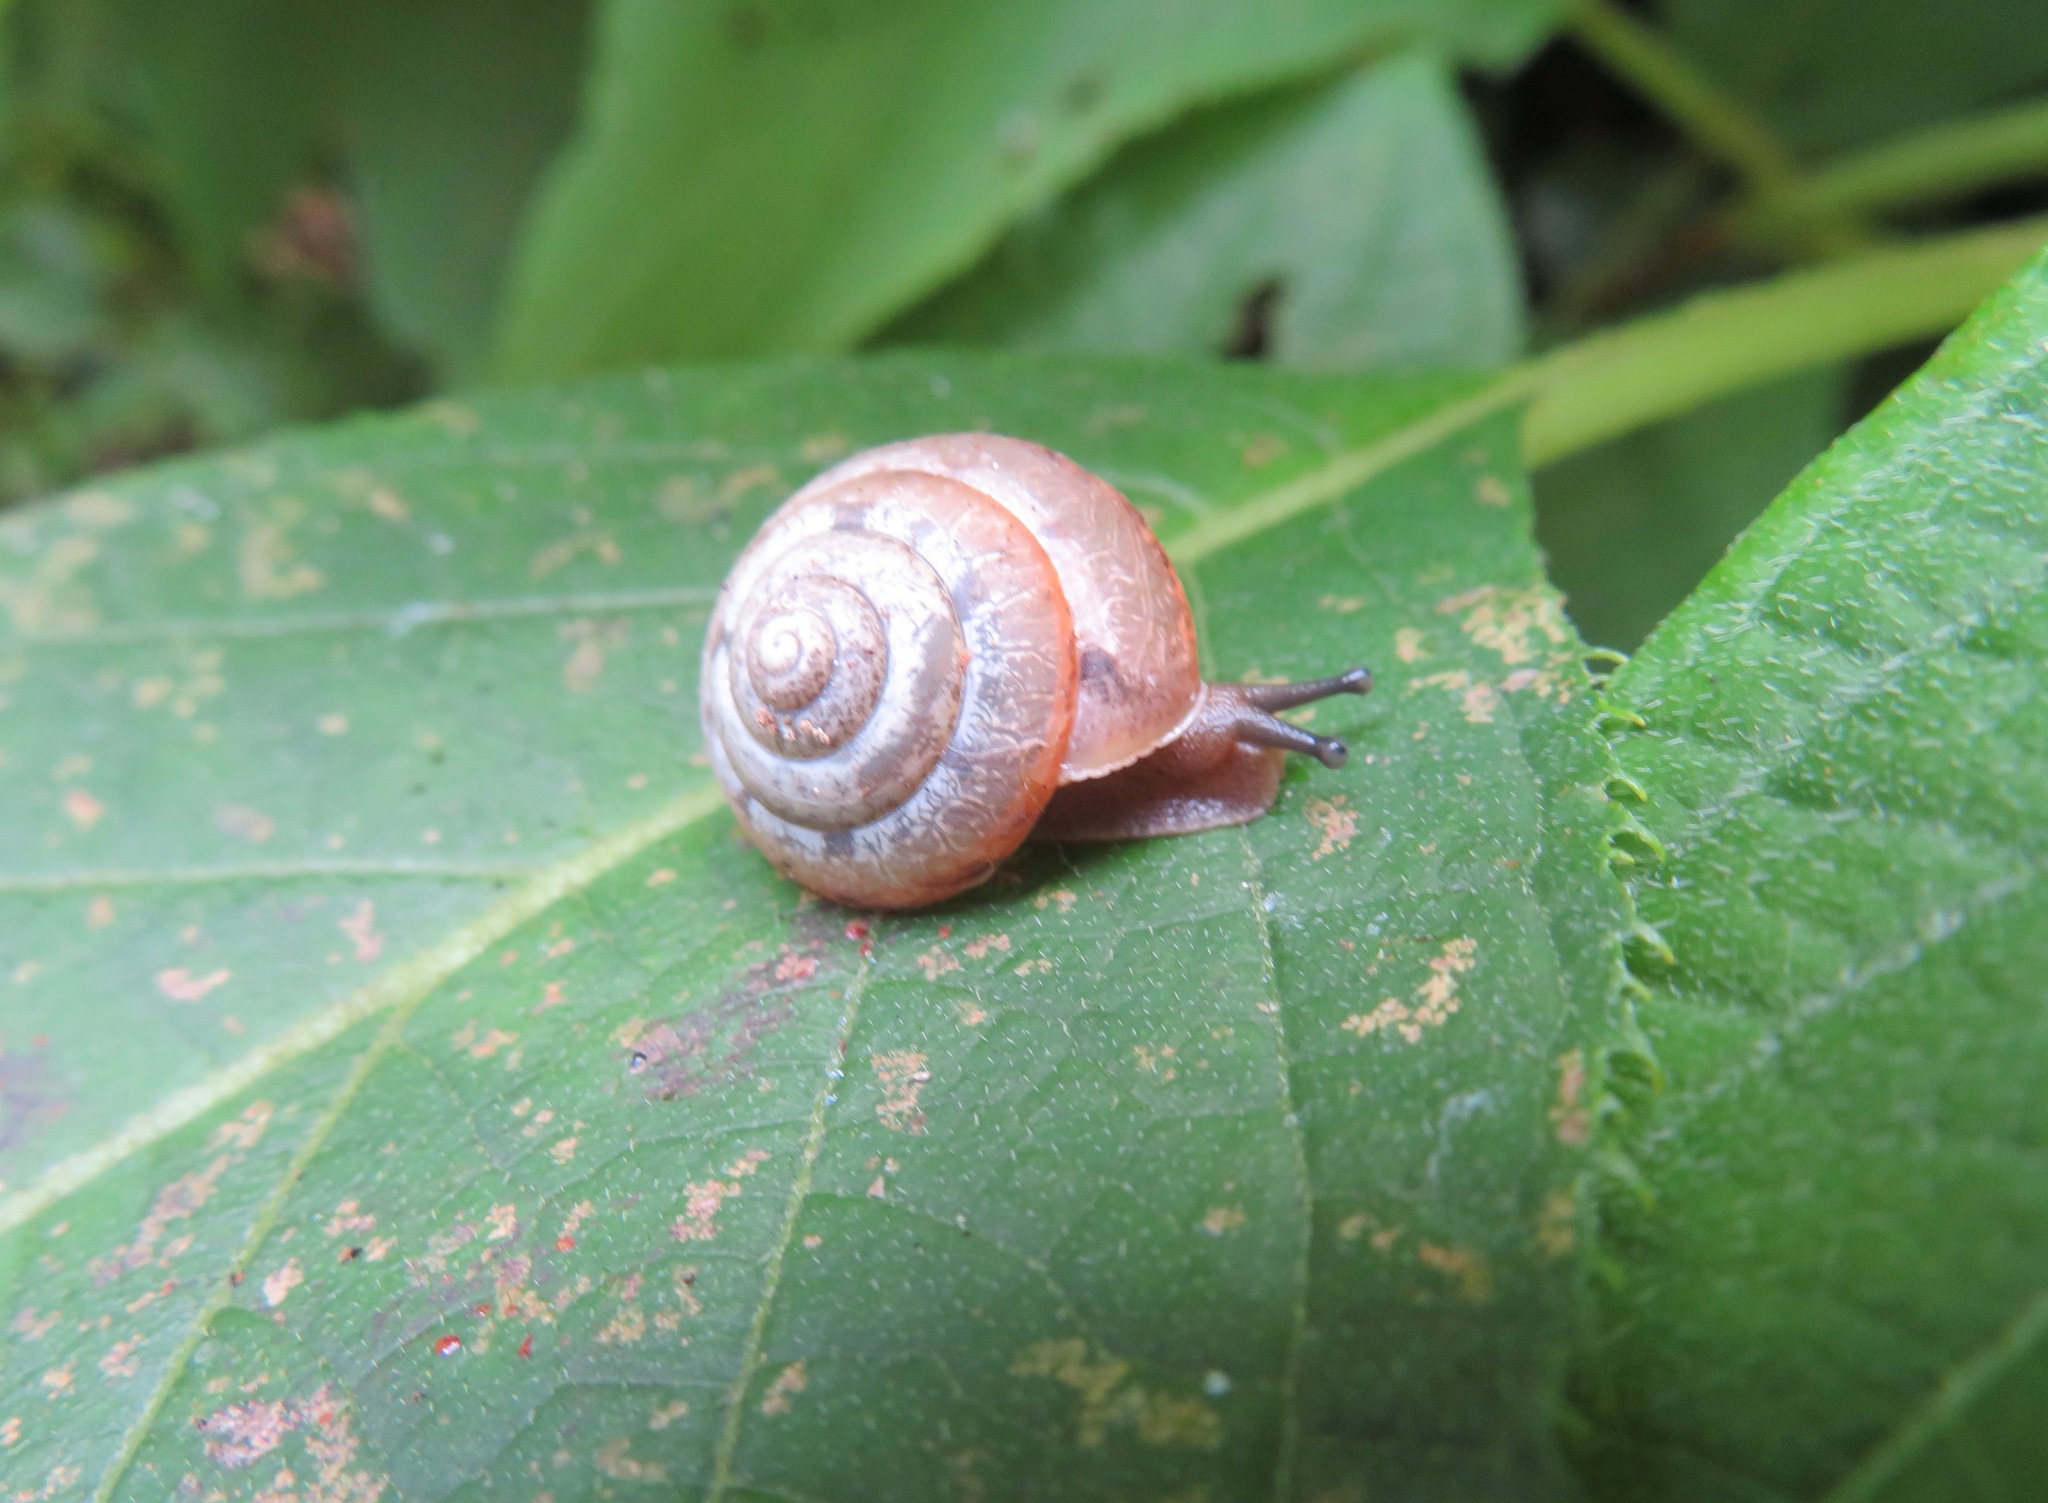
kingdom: Animalia
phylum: Mollusca
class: Gastropoda
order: Stylommatophora
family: Camaenidae
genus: Satsuma
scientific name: Satsuma japonica
